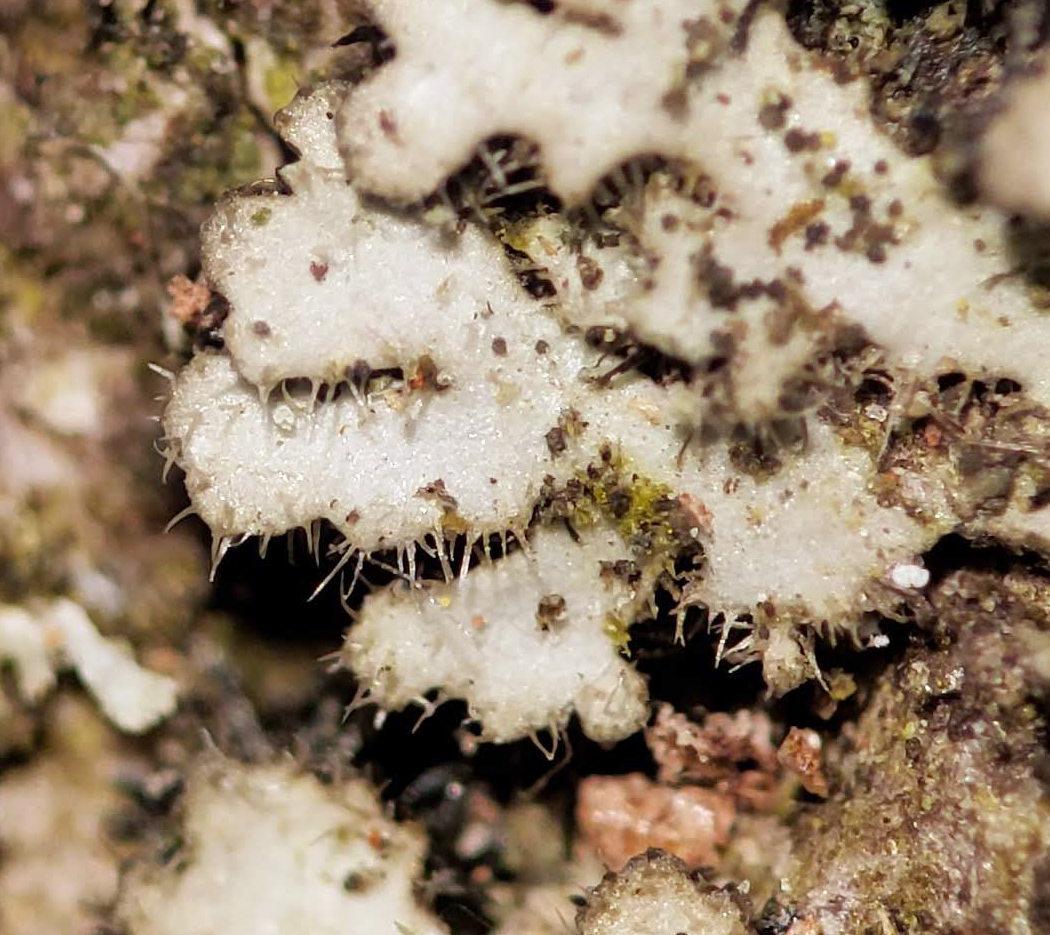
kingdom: Fungi
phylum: Ascomycota
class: Lecanoromycetes
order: Caliciales
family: Physciaceae
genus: Phaeophyscia
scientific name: Phaeophyscia hirsuta
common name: Hairy shadow lichen
